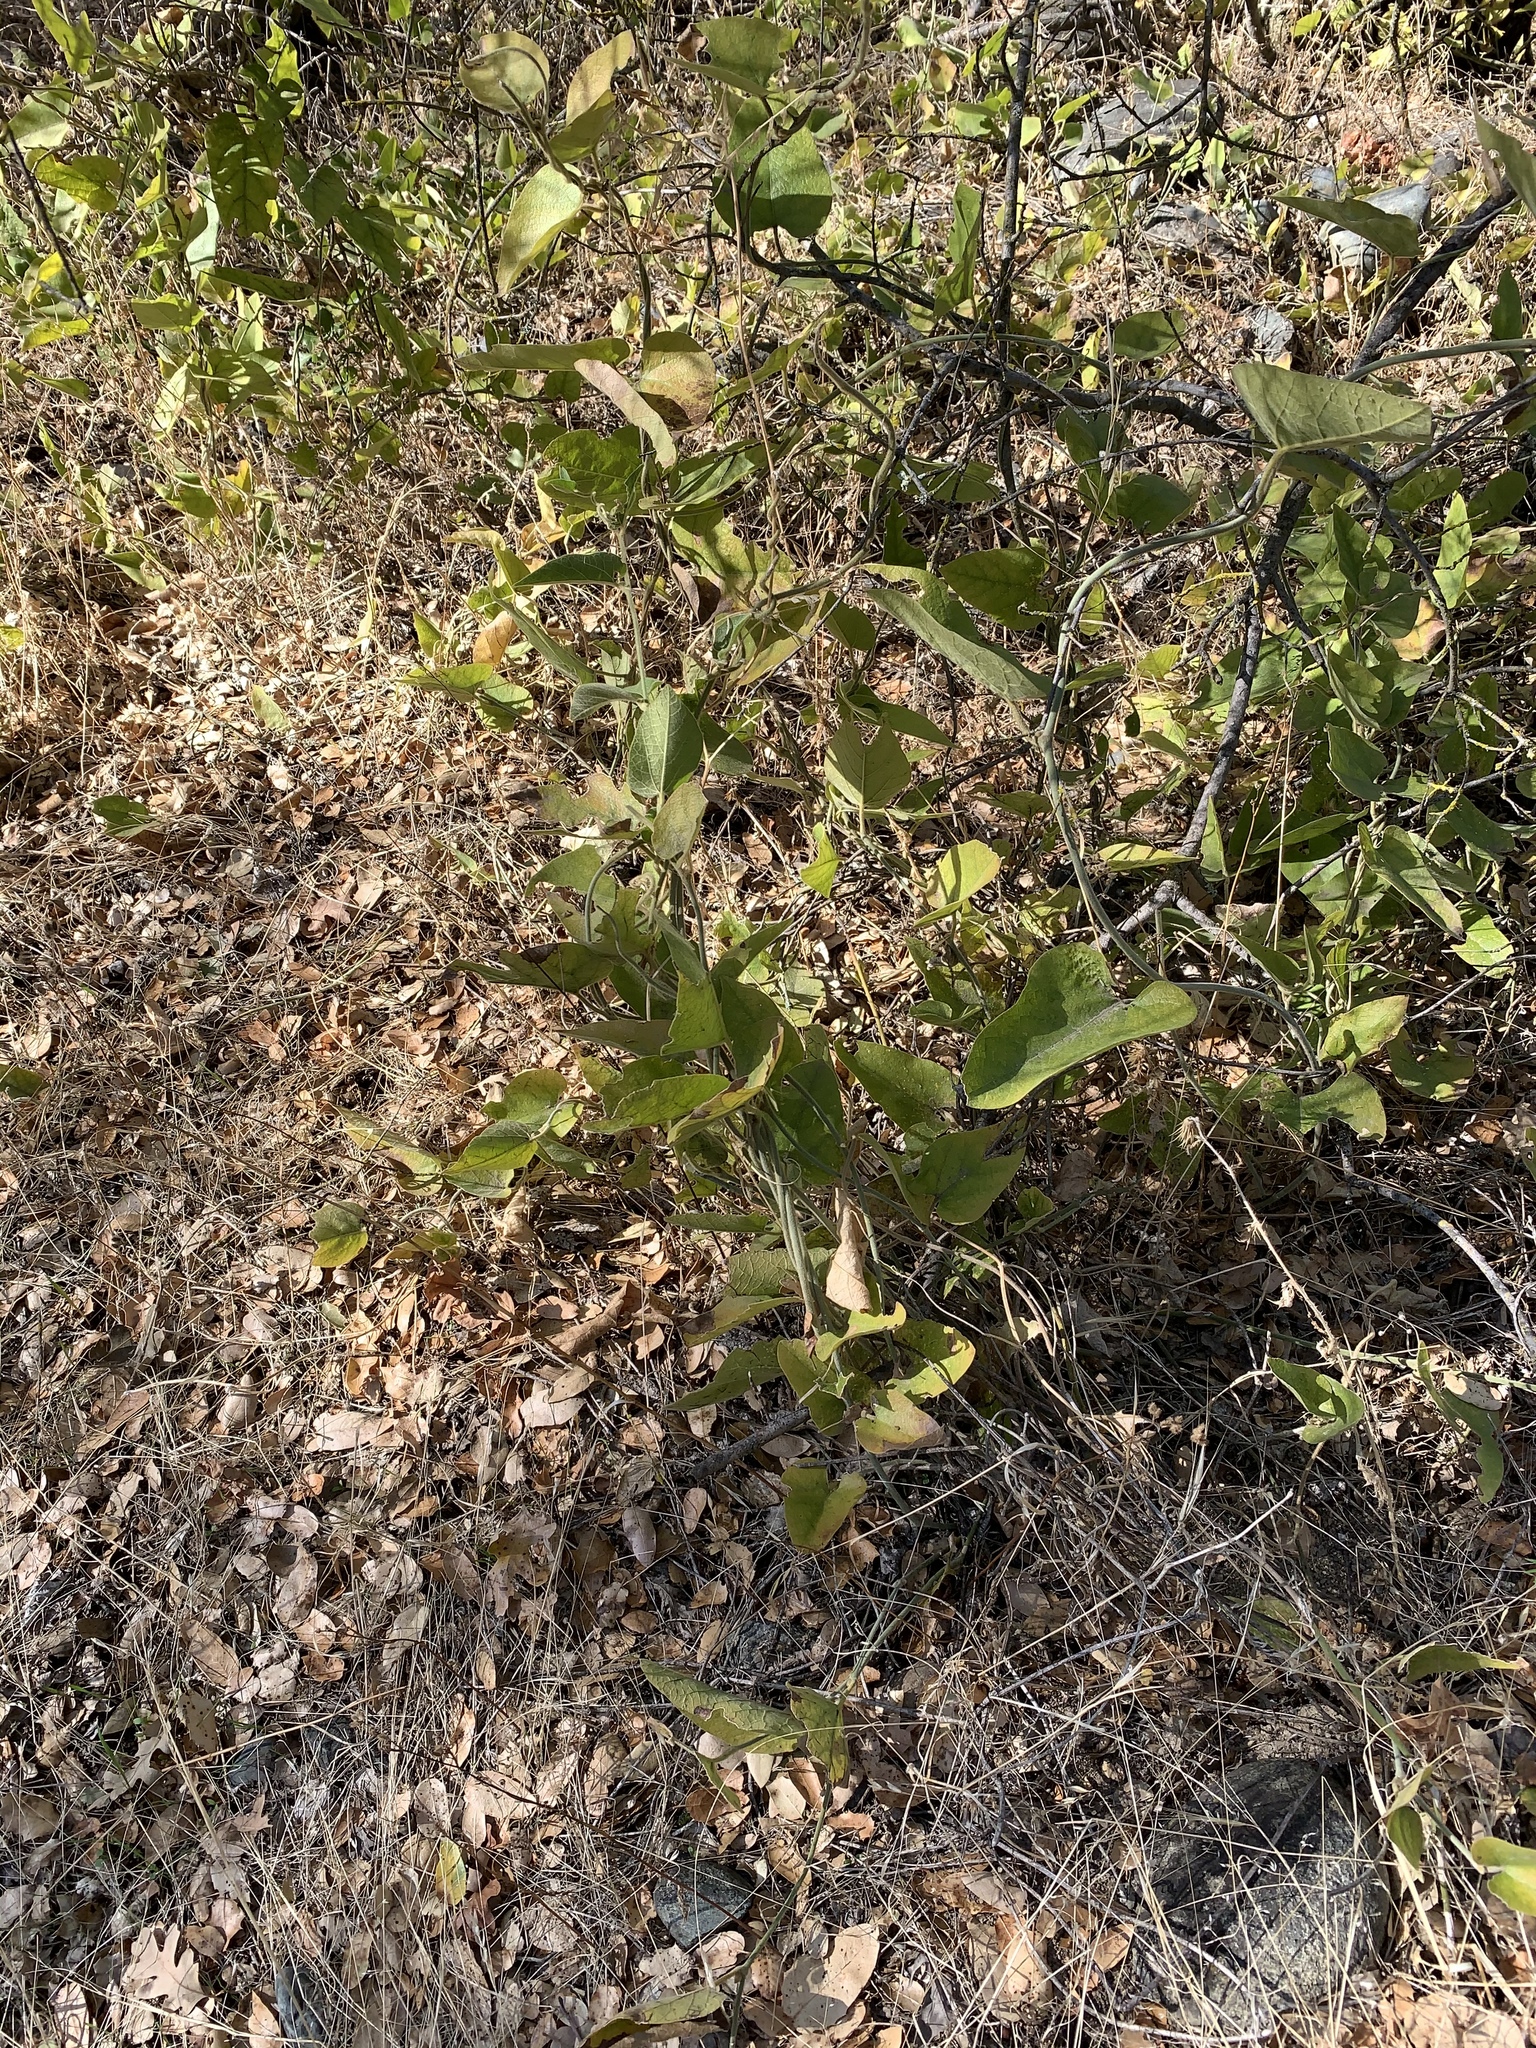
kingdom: Plantae
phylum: Tracheophyta
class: Magnoliopsida
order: Piperales
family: Aristolochiaceae
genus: Isotrema
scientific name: Isotrema californicum
